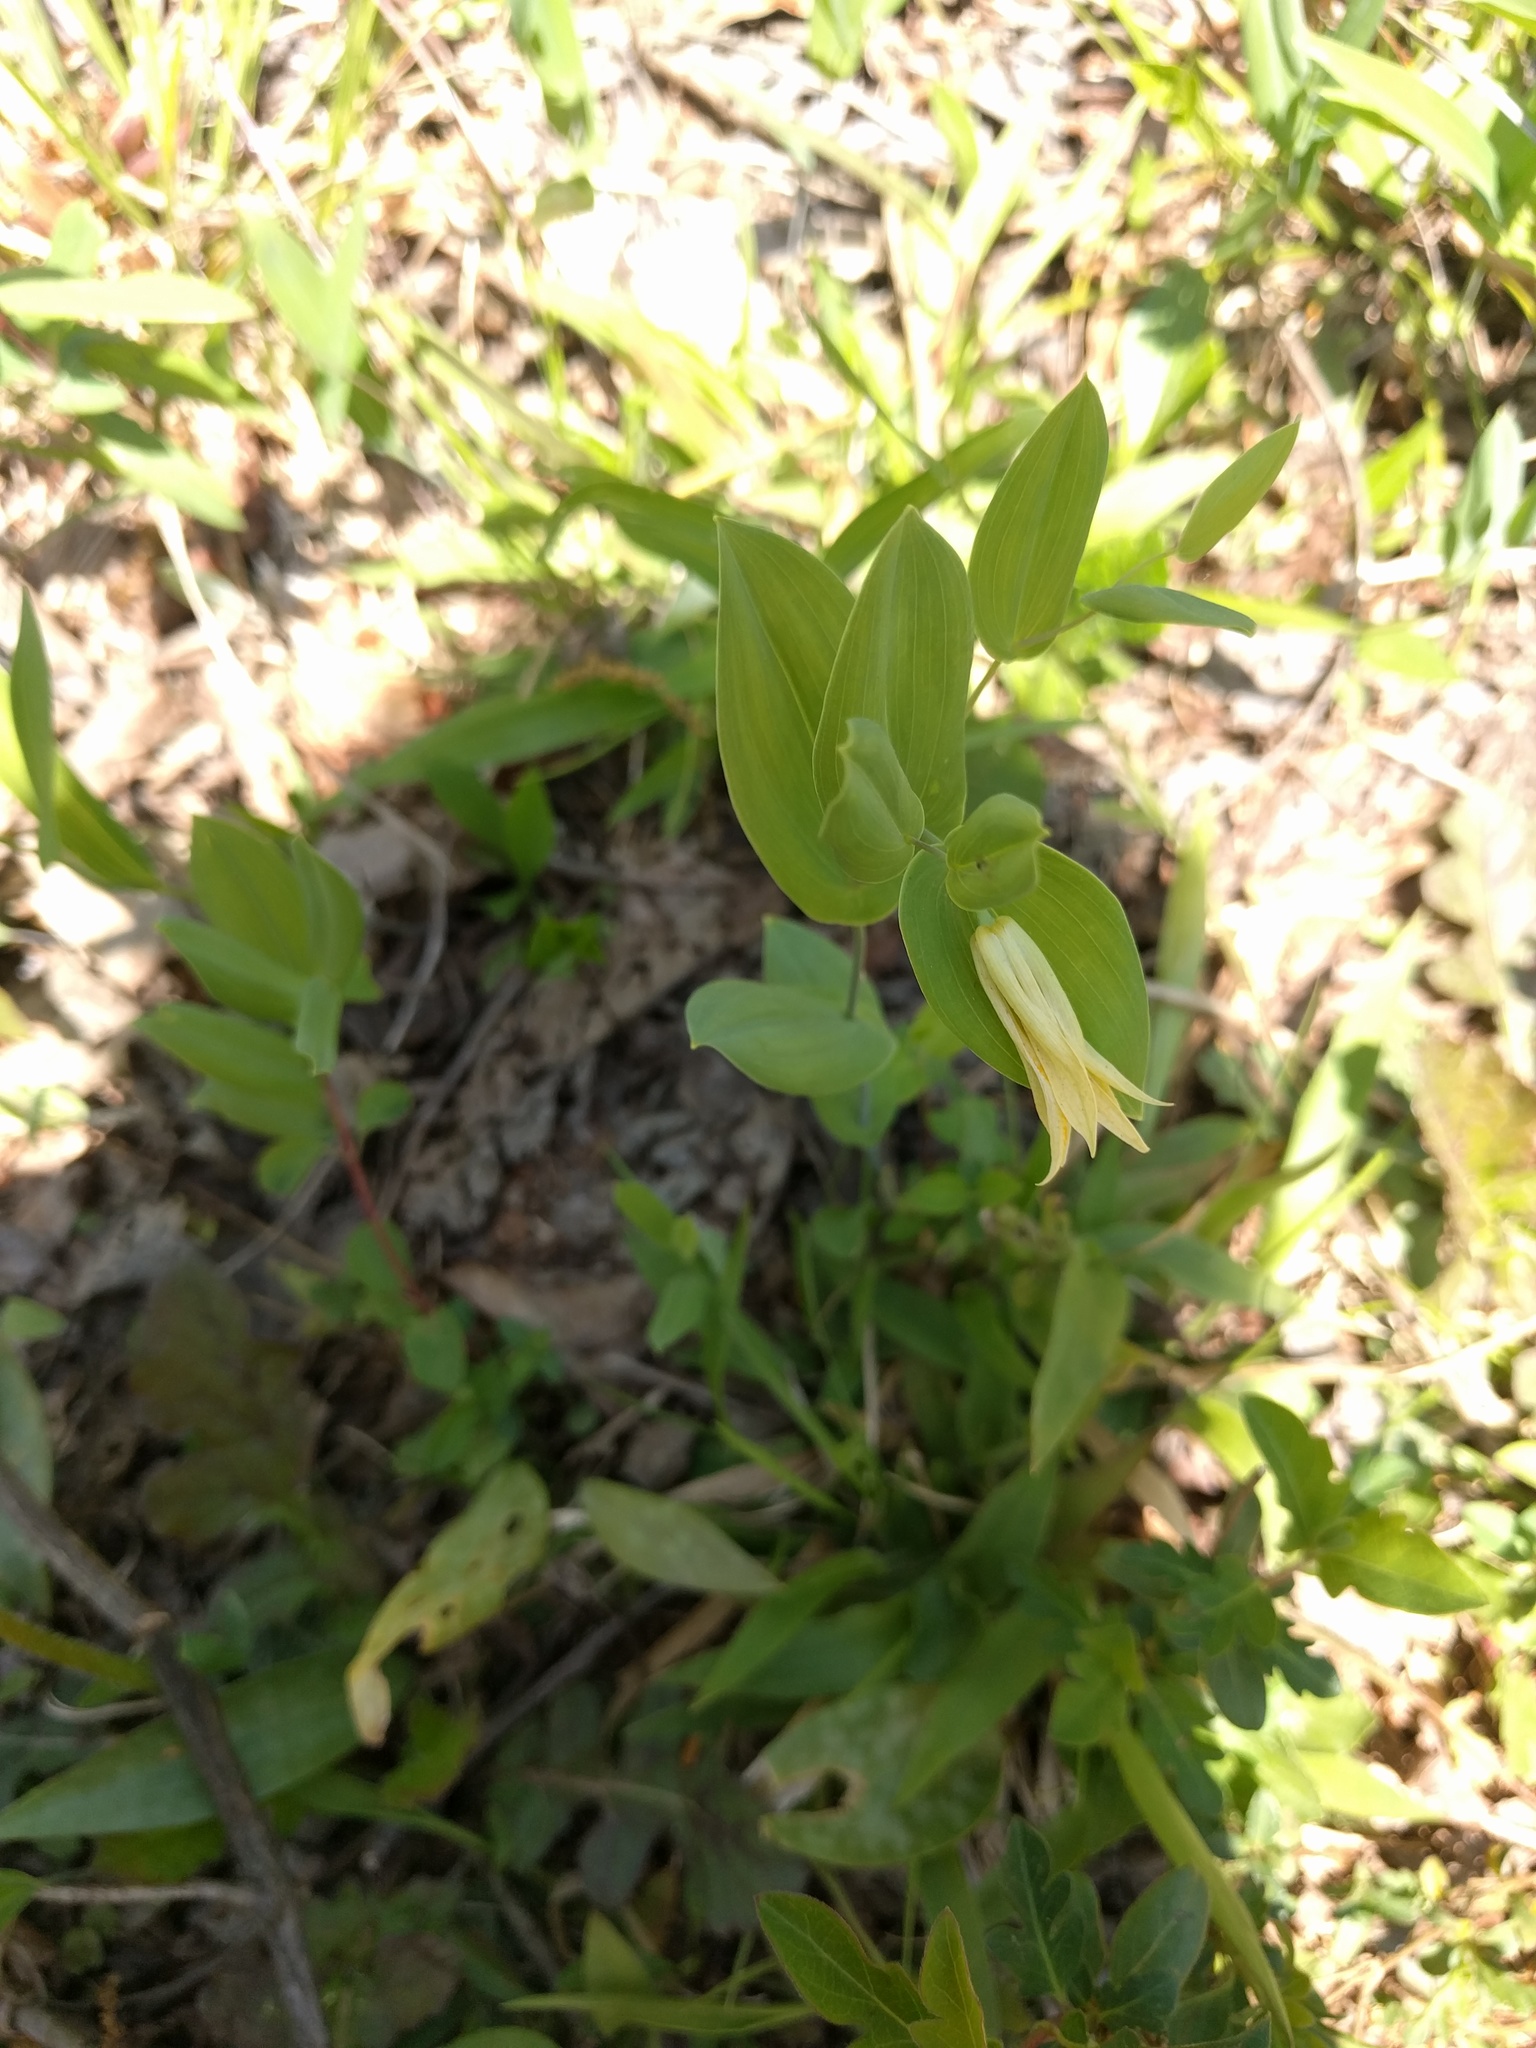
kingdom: Plantae
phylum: Tracheophyta
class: Liliopsida
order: Liliales
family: Colchicaceae
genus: Uvularia
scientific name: Uvularia perfoliata
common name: Perfoliate bellwort
